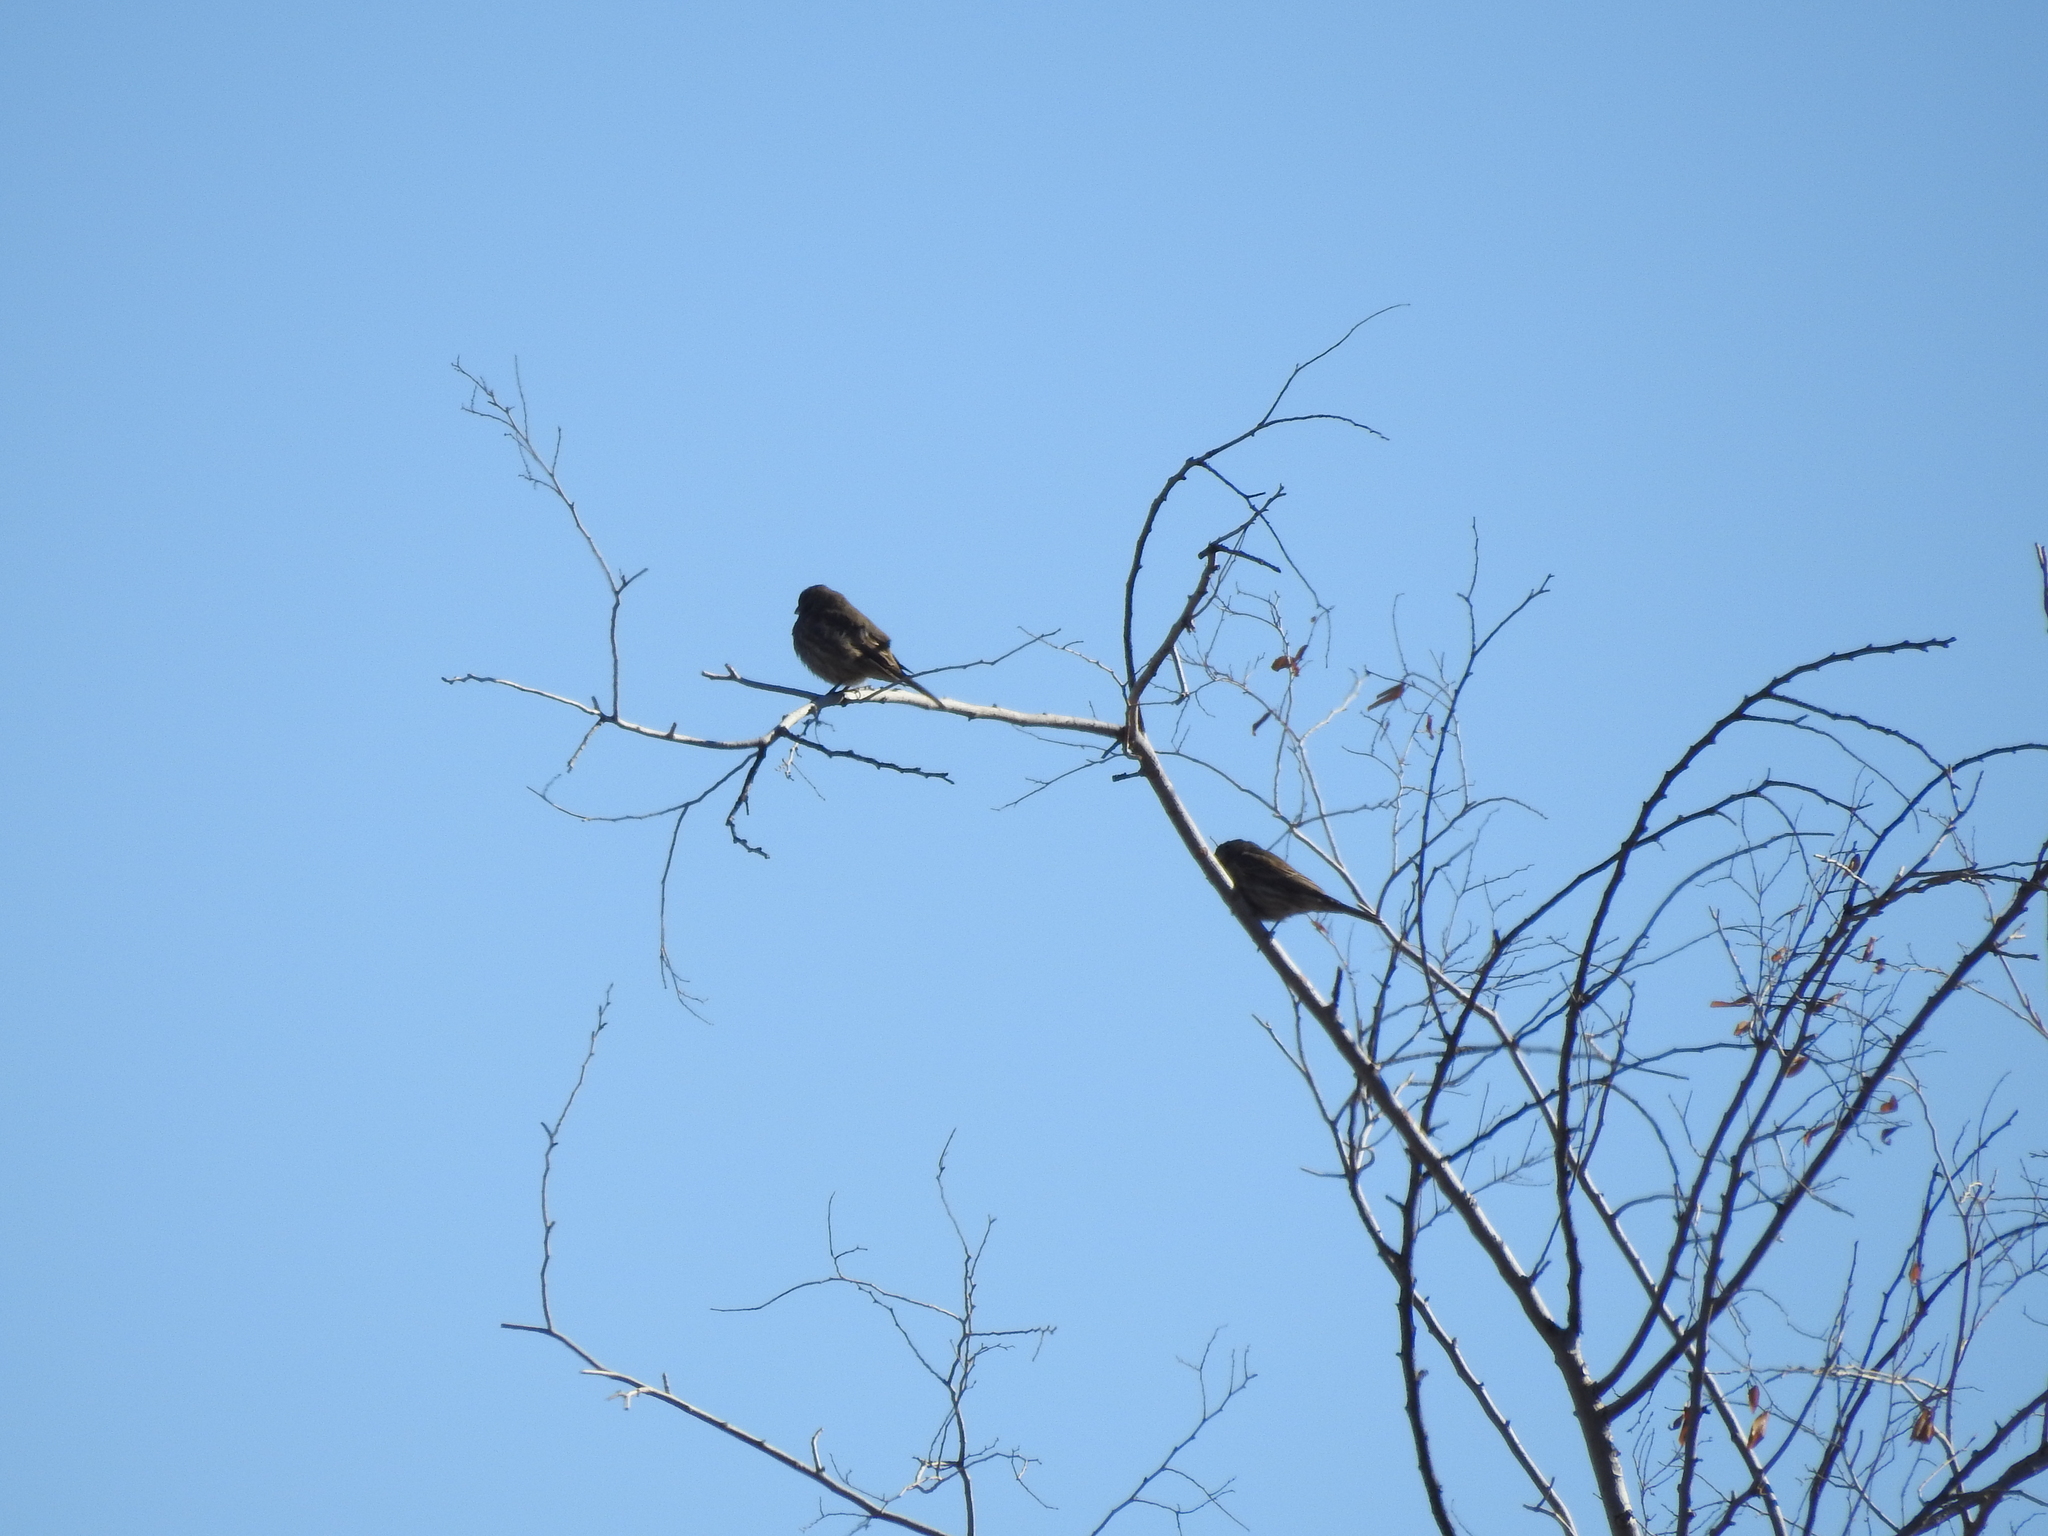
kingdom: Animalia
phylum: Chordata
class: Aves
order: Passeriformes
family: Fringillidae
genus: Haemorhous
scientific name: Haemorhous mexicanus
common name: House finch
